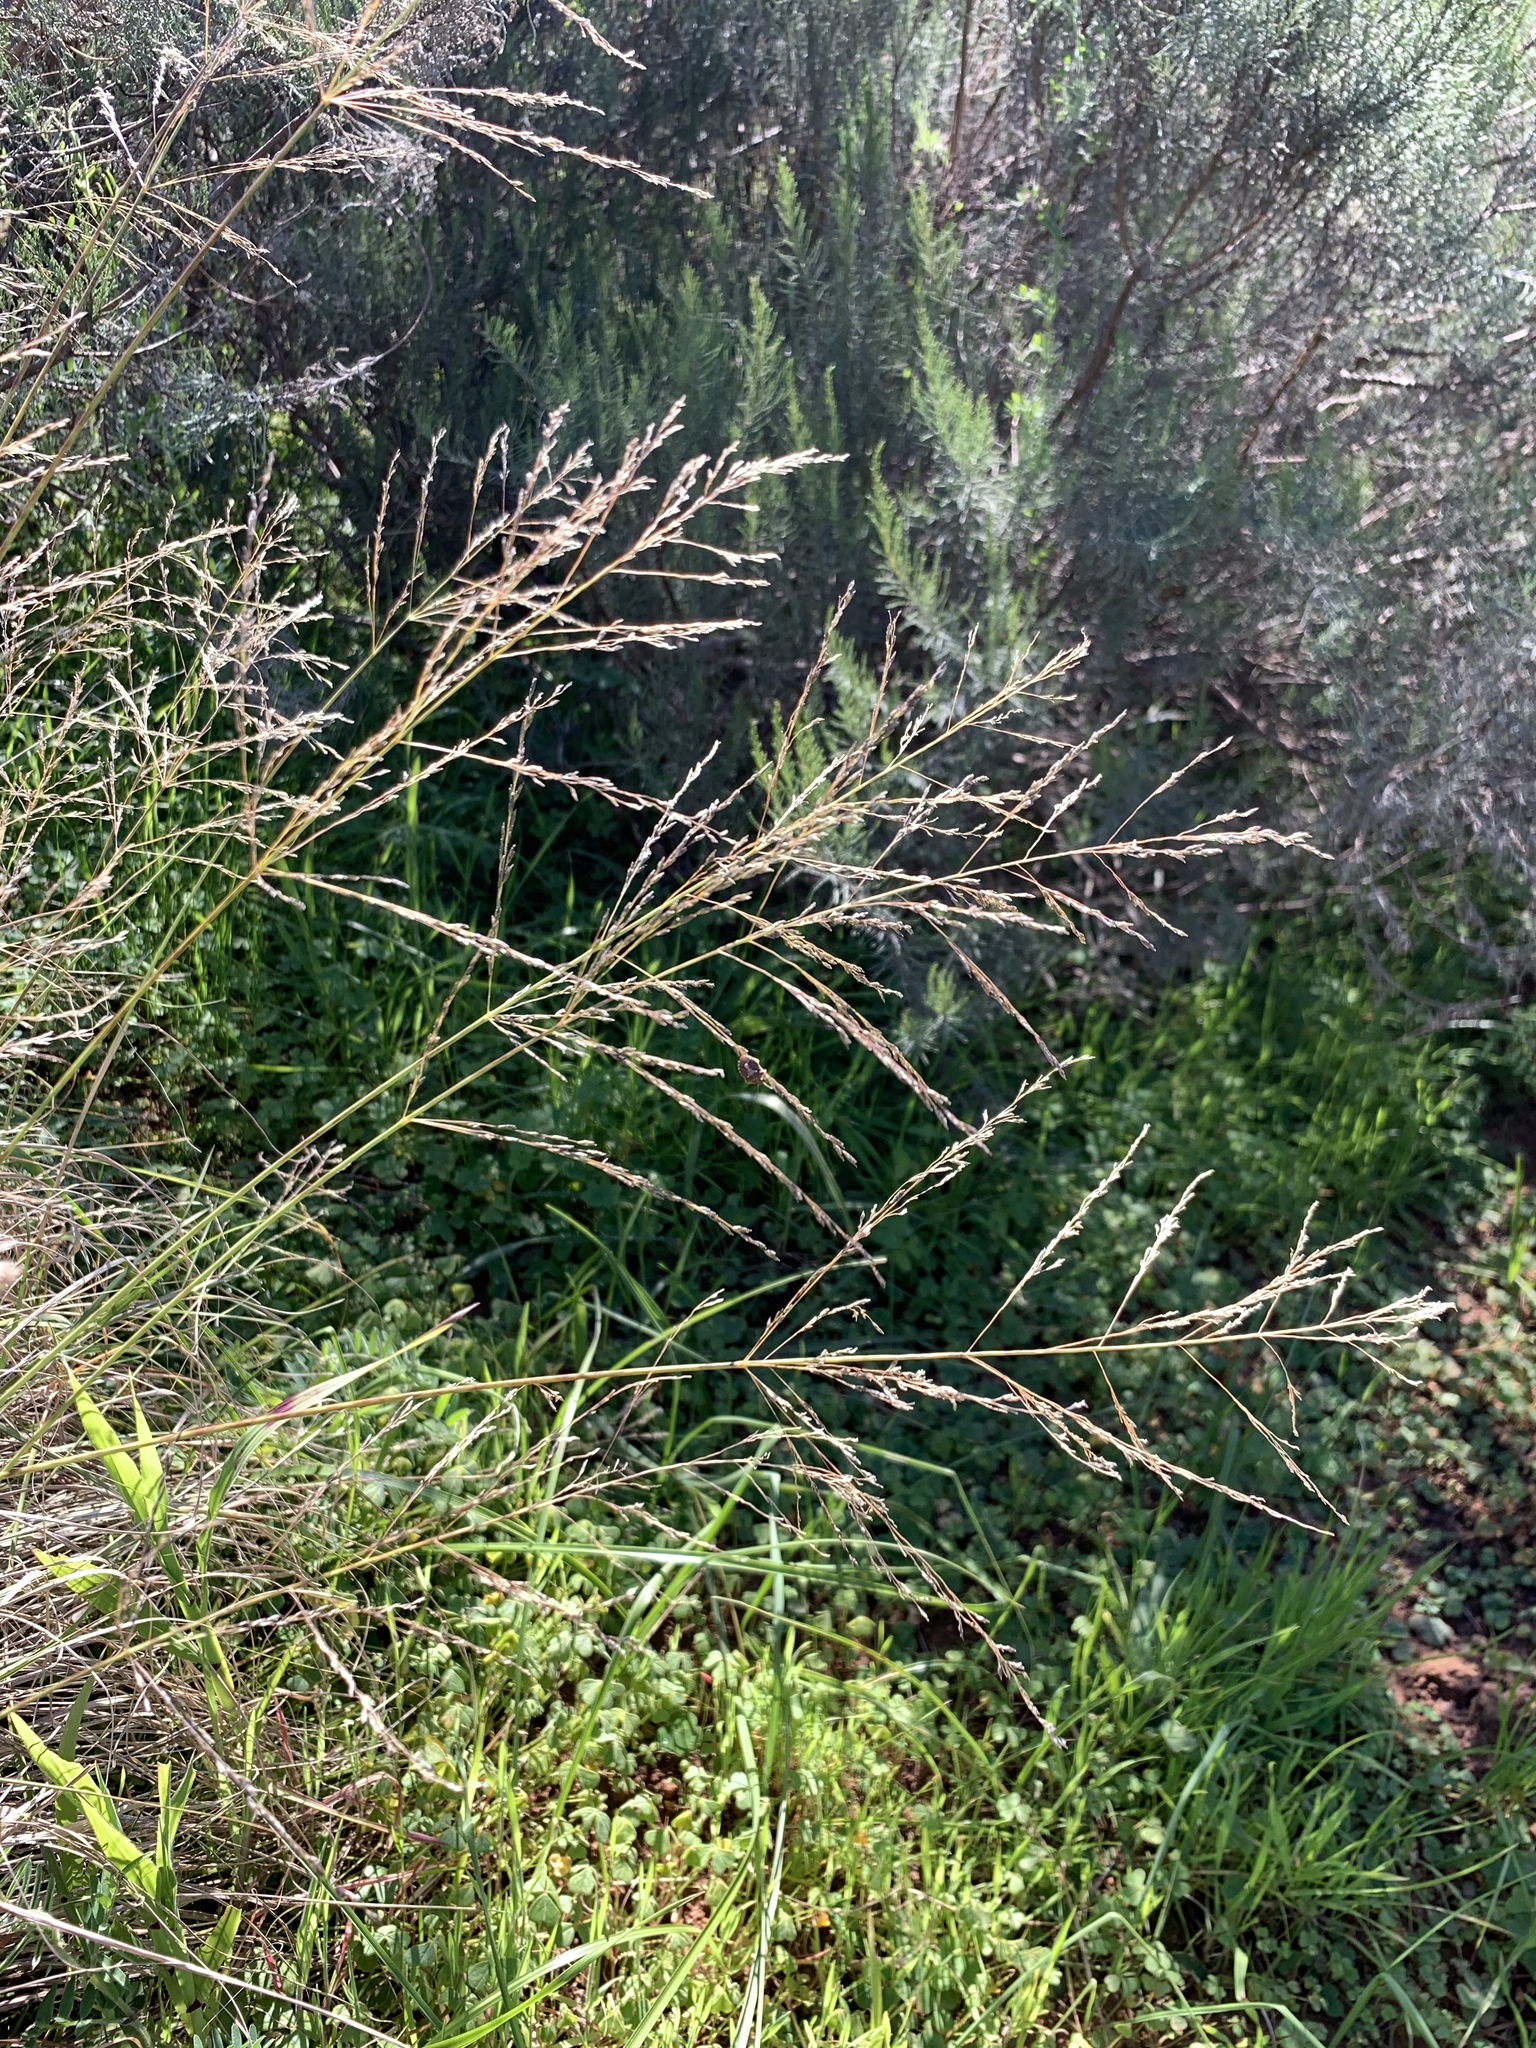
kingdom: Plantae
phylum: Tracheophyta
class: Liliopsida
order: Poales
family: Poaceae
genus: Eragrostis
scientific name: Eragrostis curvula
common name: African love-grass
